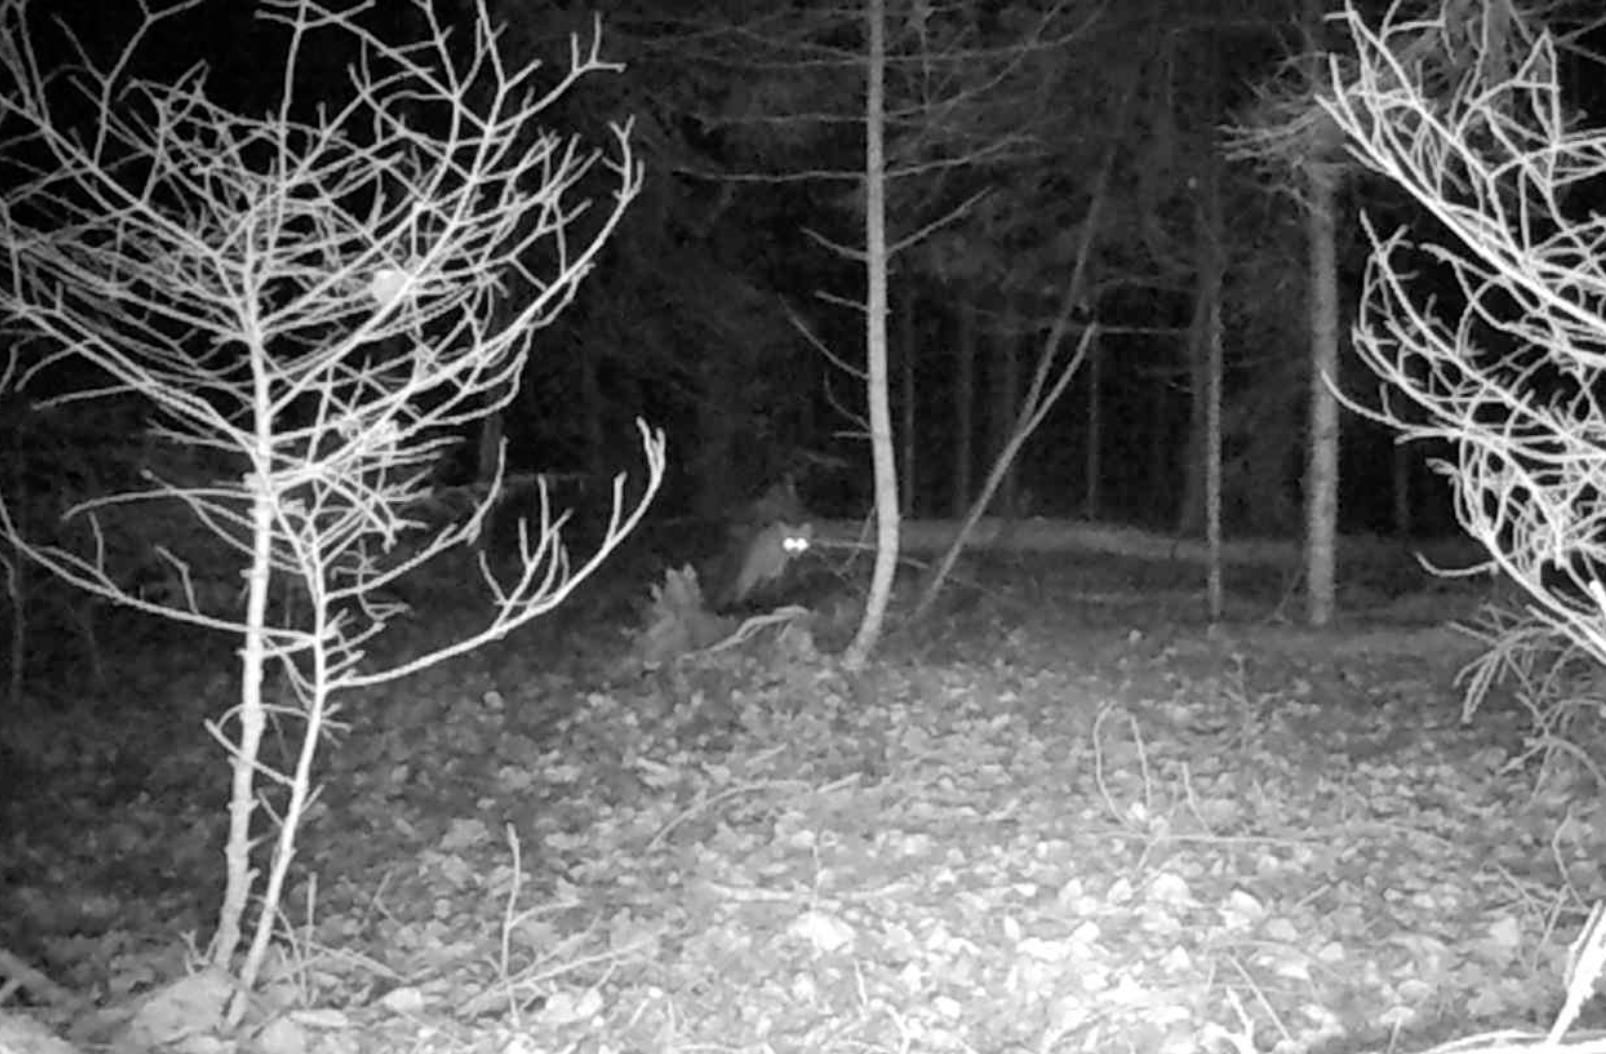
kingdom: Animalia
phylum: Chordata
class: Mammalia
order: Carnivora
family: Canidae
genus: Vulpes
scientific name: Vulpes vulpes
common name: Red fox
